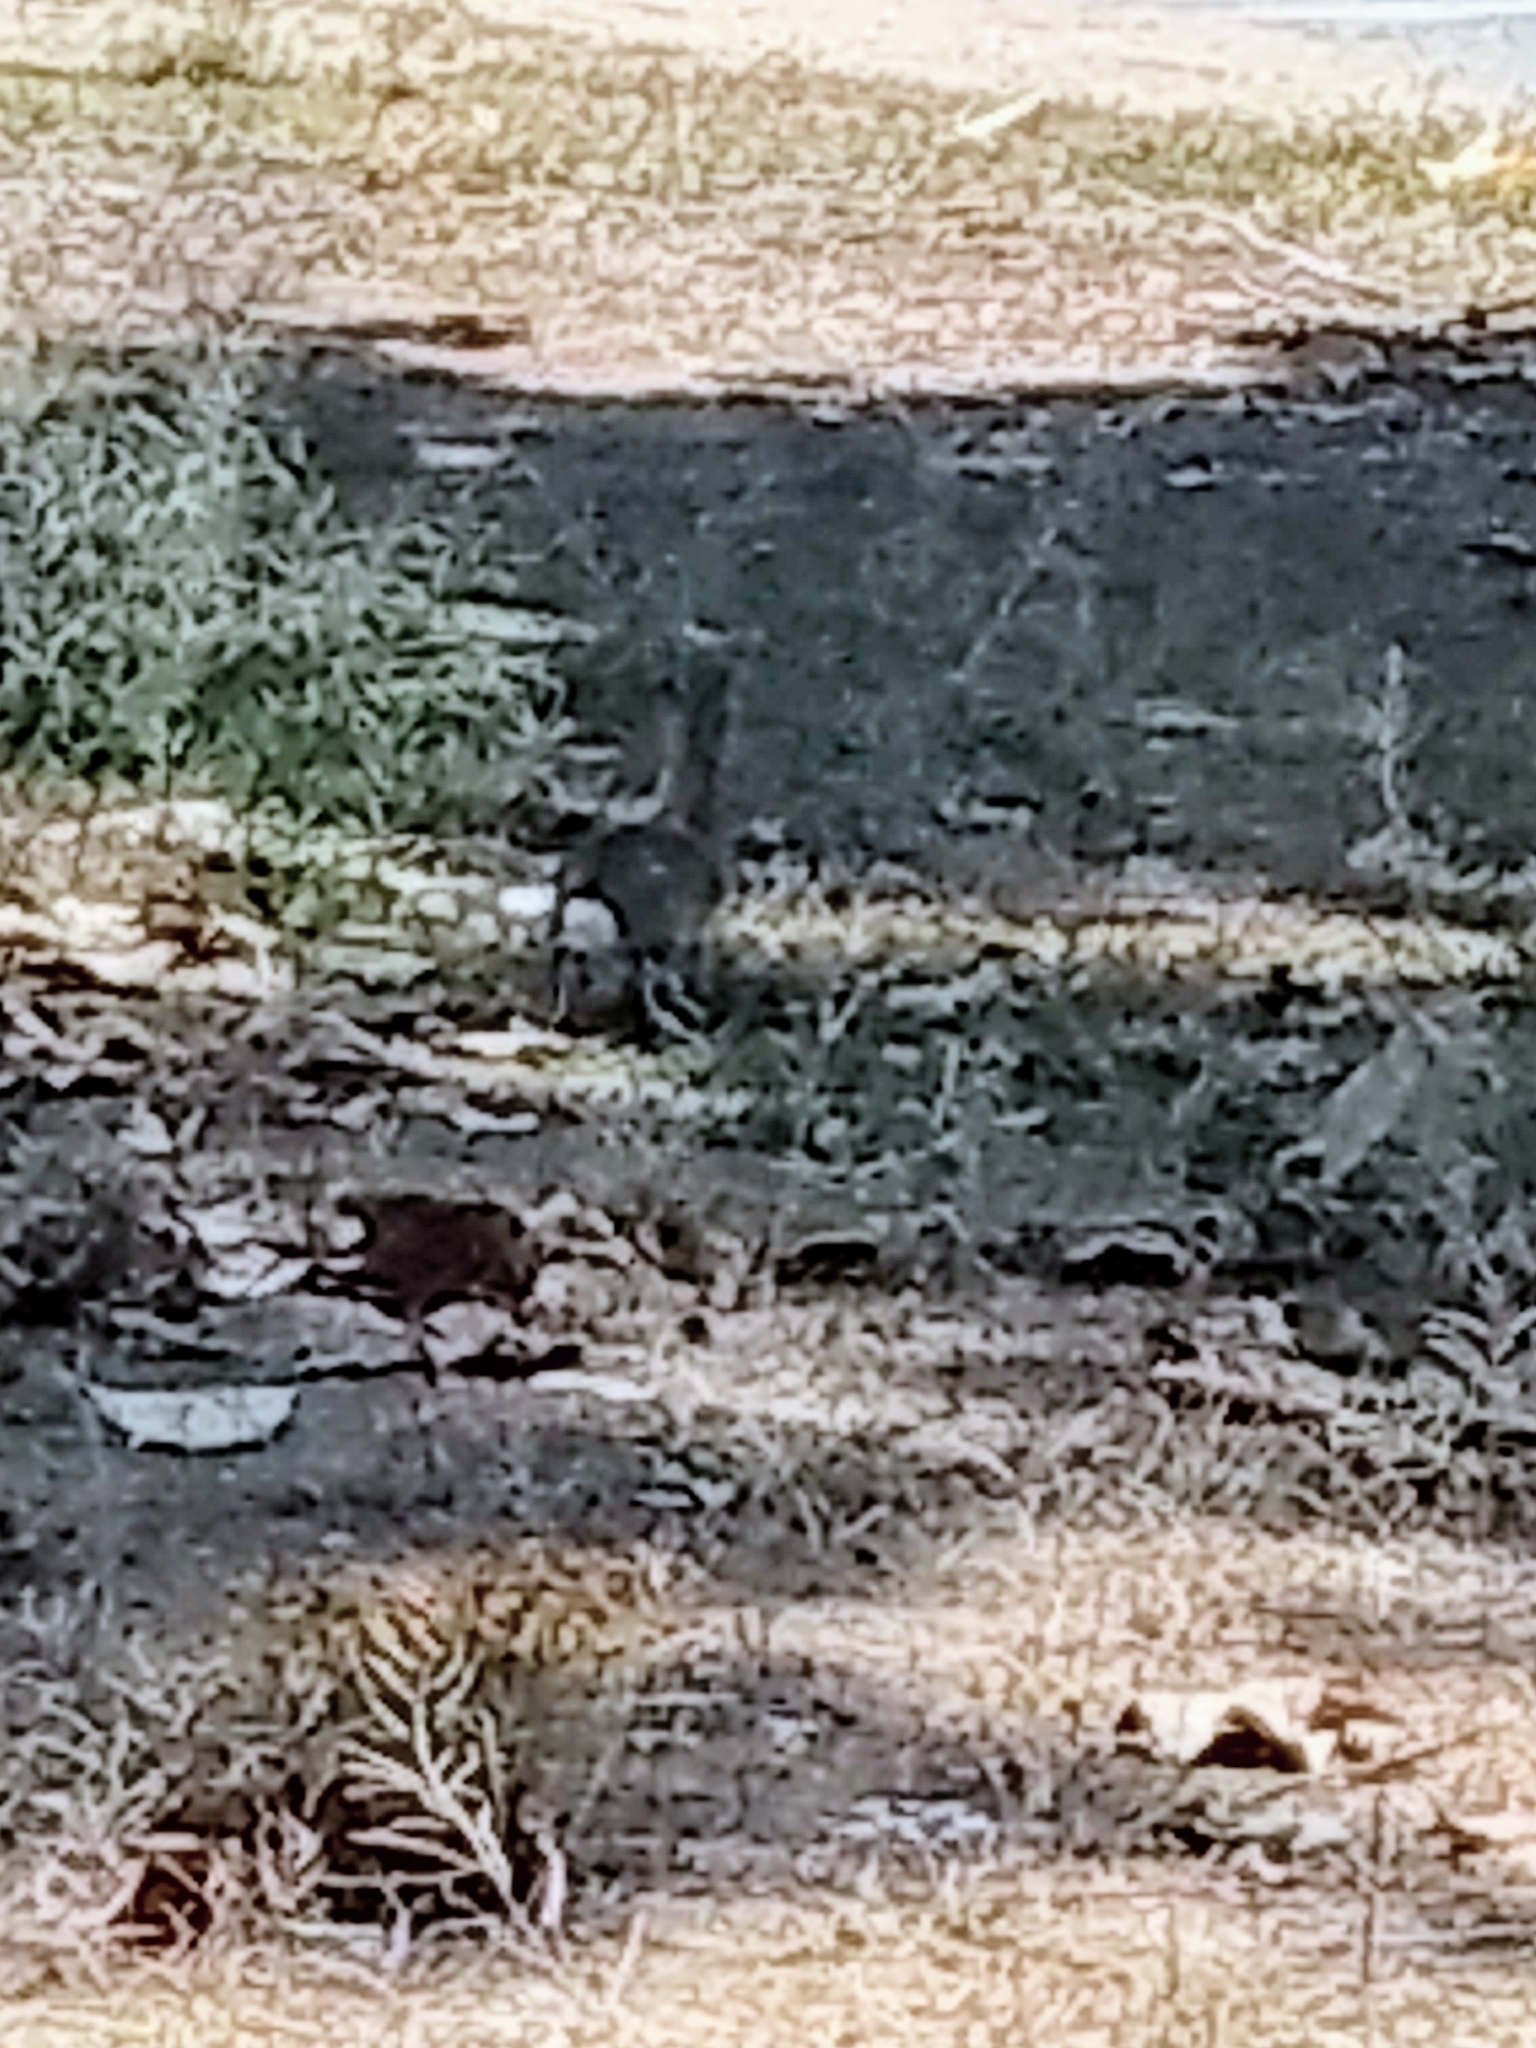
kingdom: Animalia
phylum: Chordata
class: Mammalia
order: Lagomorpha
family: Leporidae
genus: Sylvilagus
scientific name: Sylvilagus audubonii
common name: Desert cottontail
